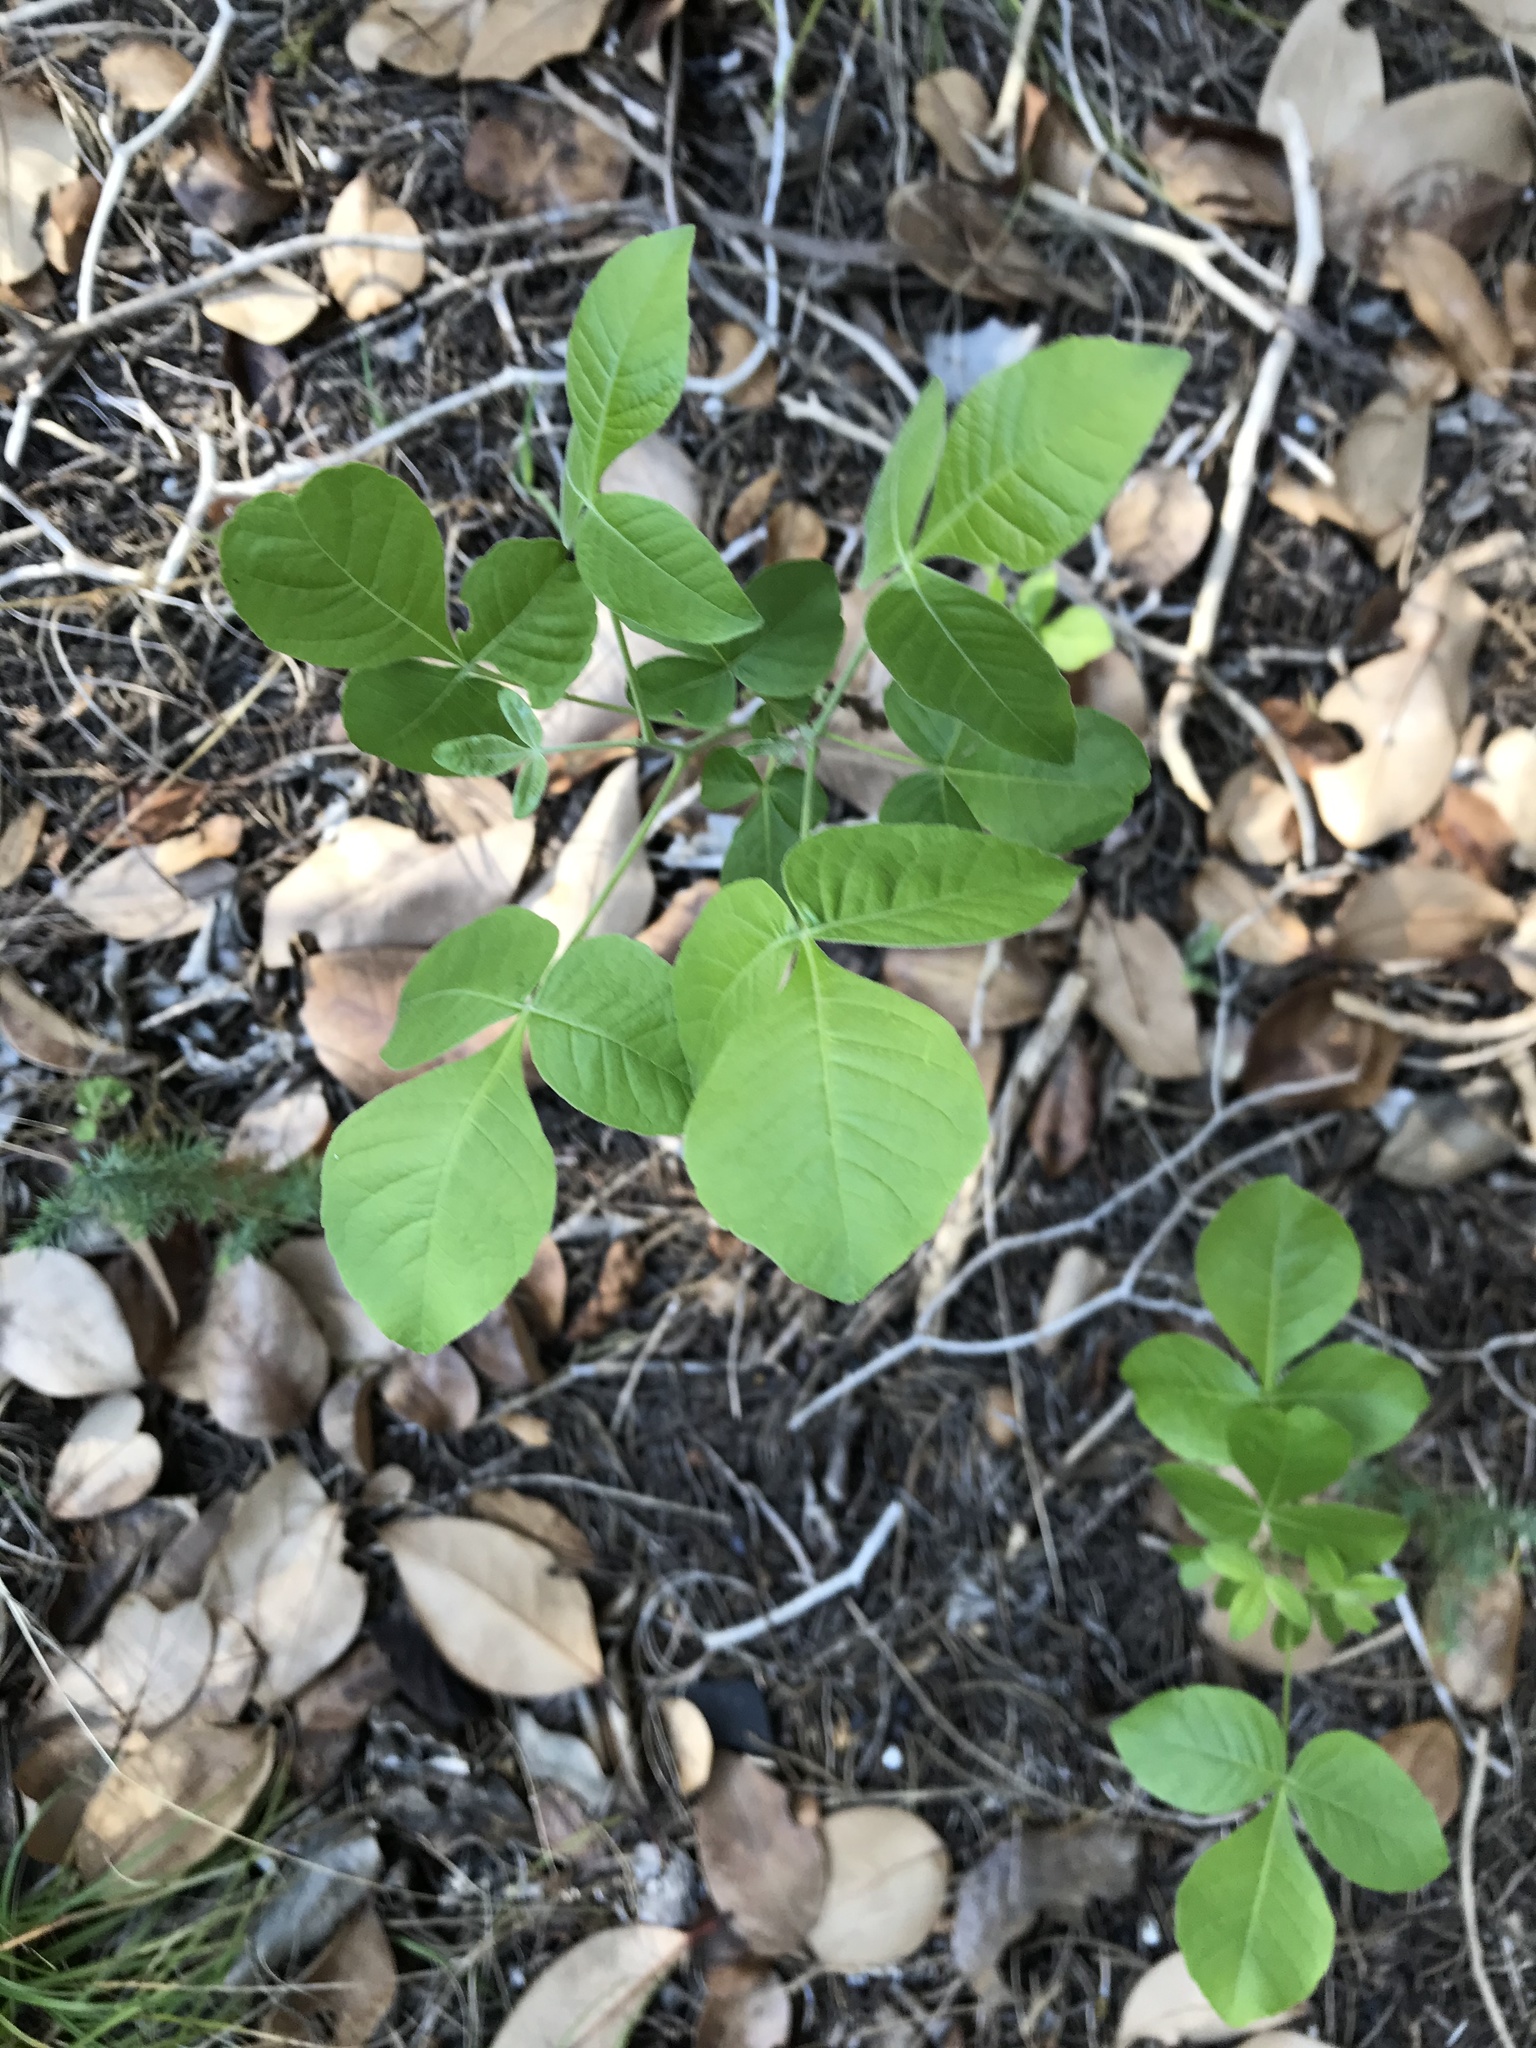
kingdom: Plantae
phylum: Tracheophyta
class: Magnoliopsida
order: Sapindales
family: Rutaceae
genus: Ptelea
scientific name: Ptelea trifoliata
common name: Common hop-tree
